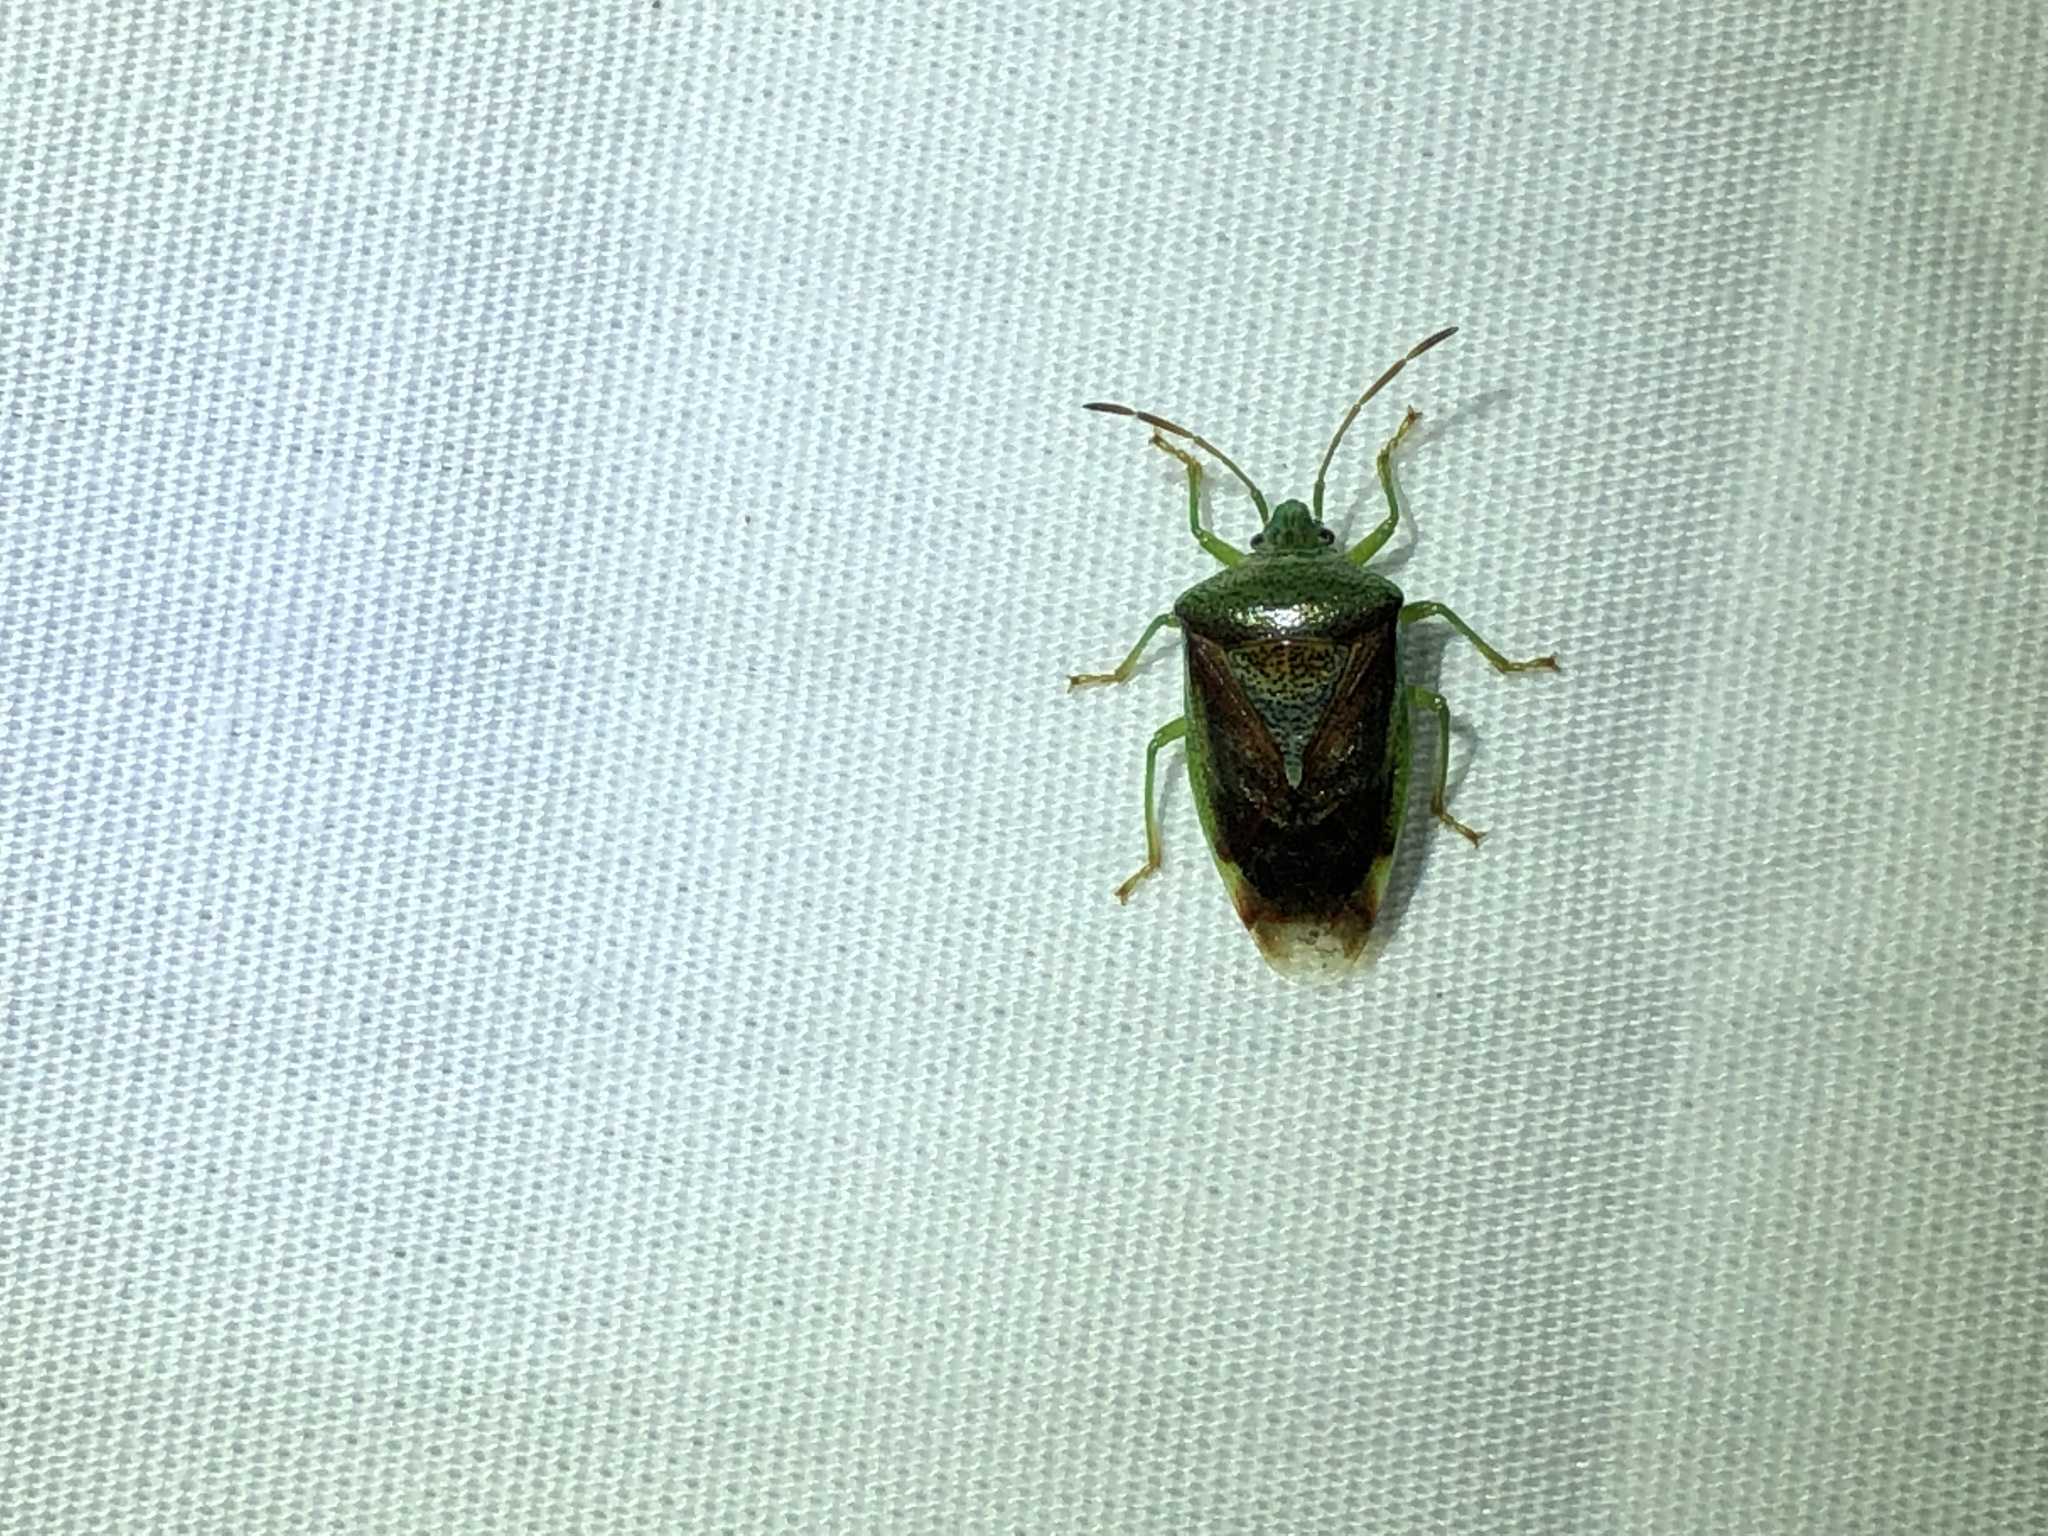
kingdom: Animalia
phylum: Arthropoda
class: Insecta
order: Hemiptera
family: Acanthosomatidae
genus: Elasmostethus
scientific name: Elasmostethus interstinctus
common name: Birch shieldbug
